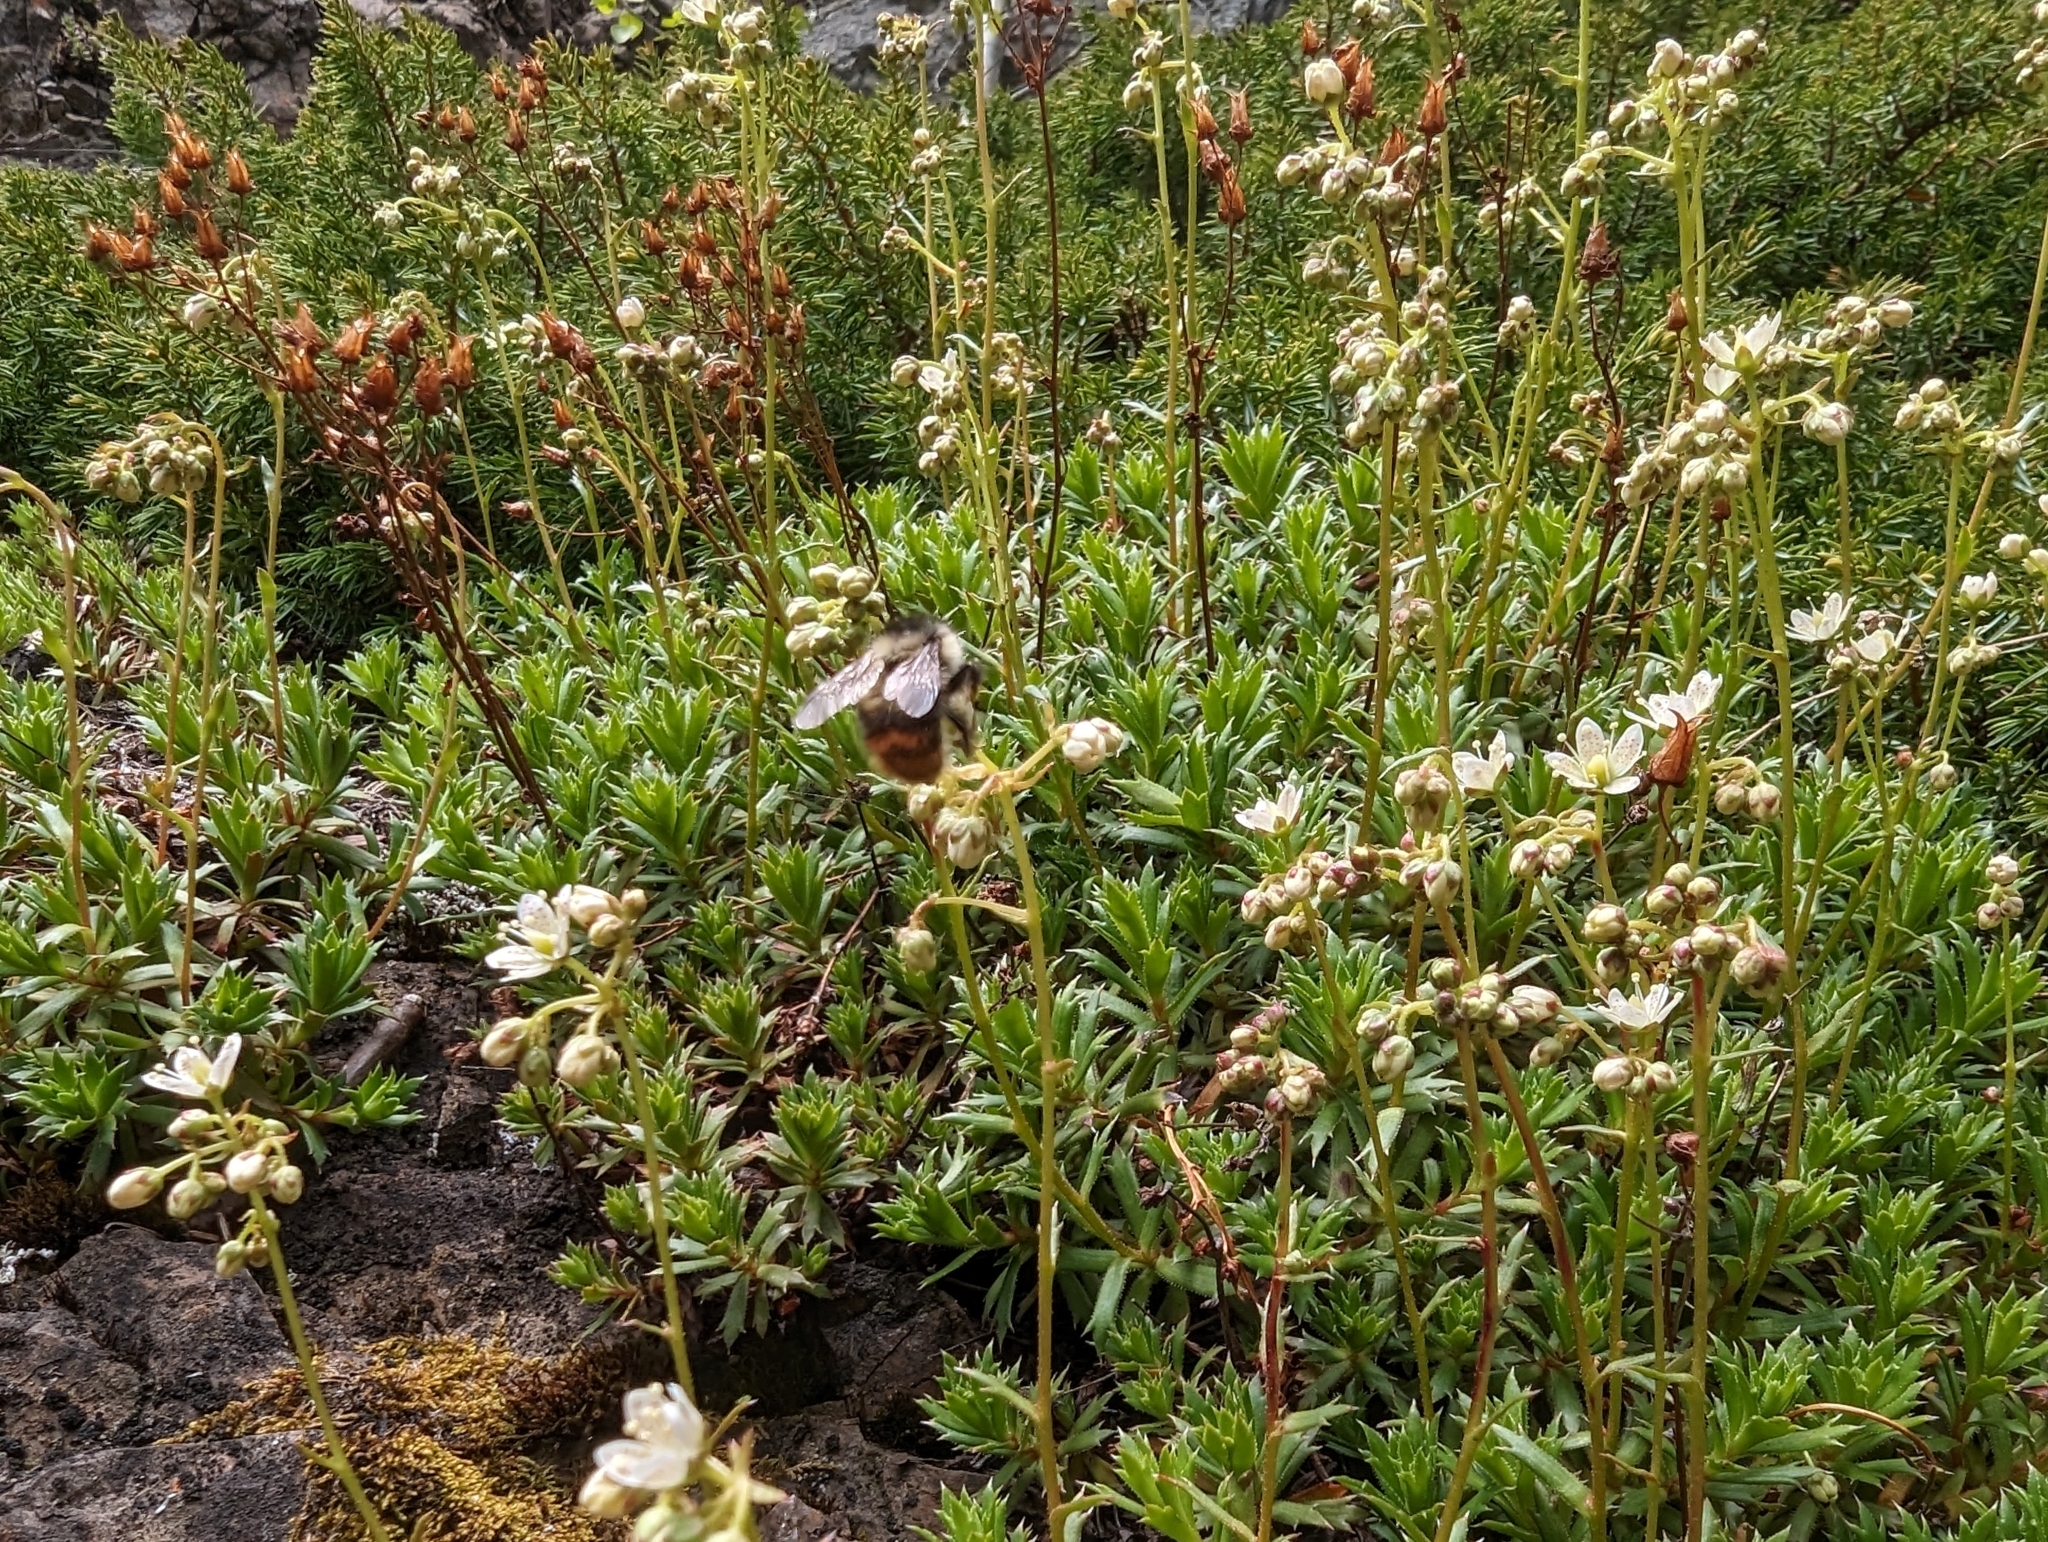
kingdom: Animalia
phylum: Arthropoda
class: Insecta
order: Hymenoptera
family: Apidae
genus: Bombus
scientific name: Bombus mixtus
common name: Fuzzy-horned bumble bee
